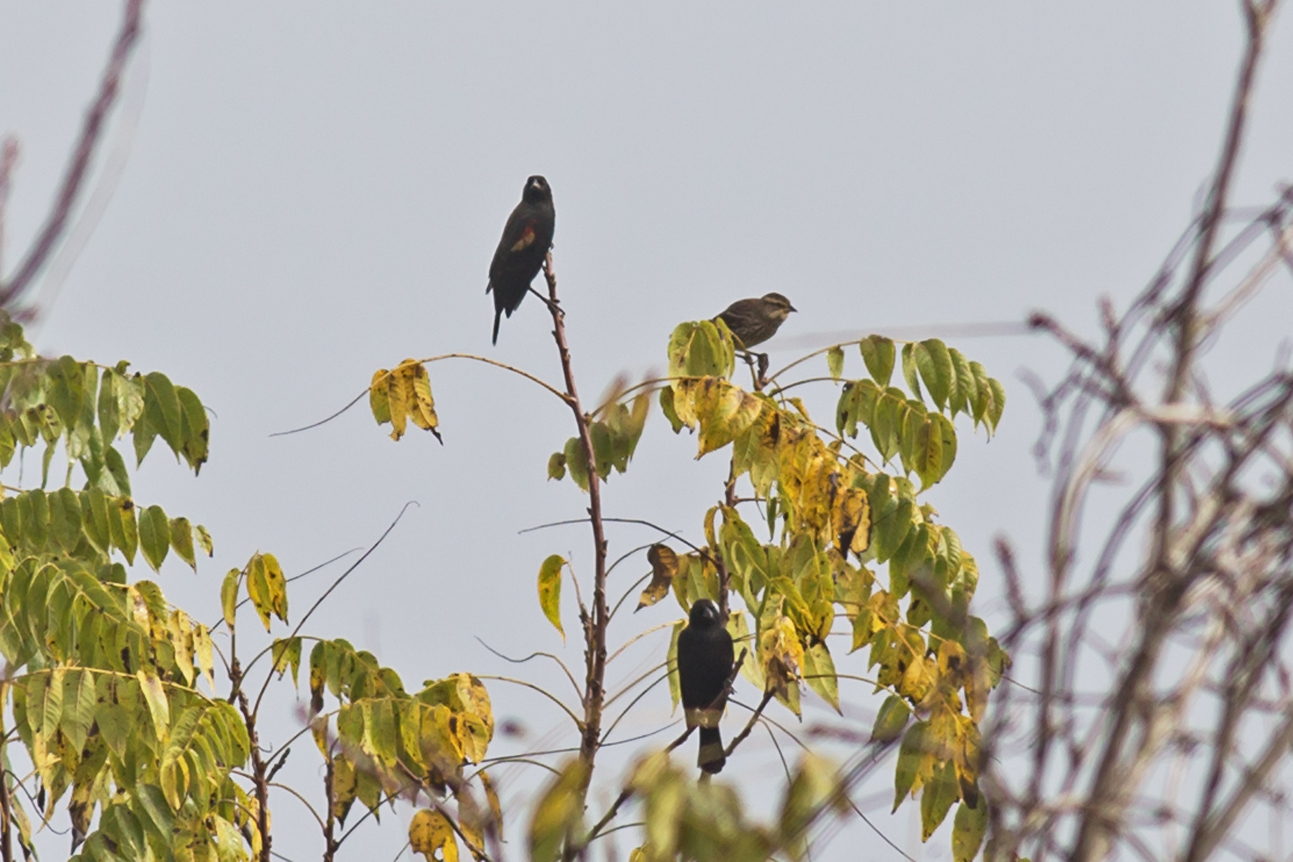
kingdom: Animalia
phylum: Chordata
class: Aves
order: Passeriformes
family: Icteridae
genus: Agelaius
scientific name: Agelaius phoeniceus
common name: Red-winged blackbird
